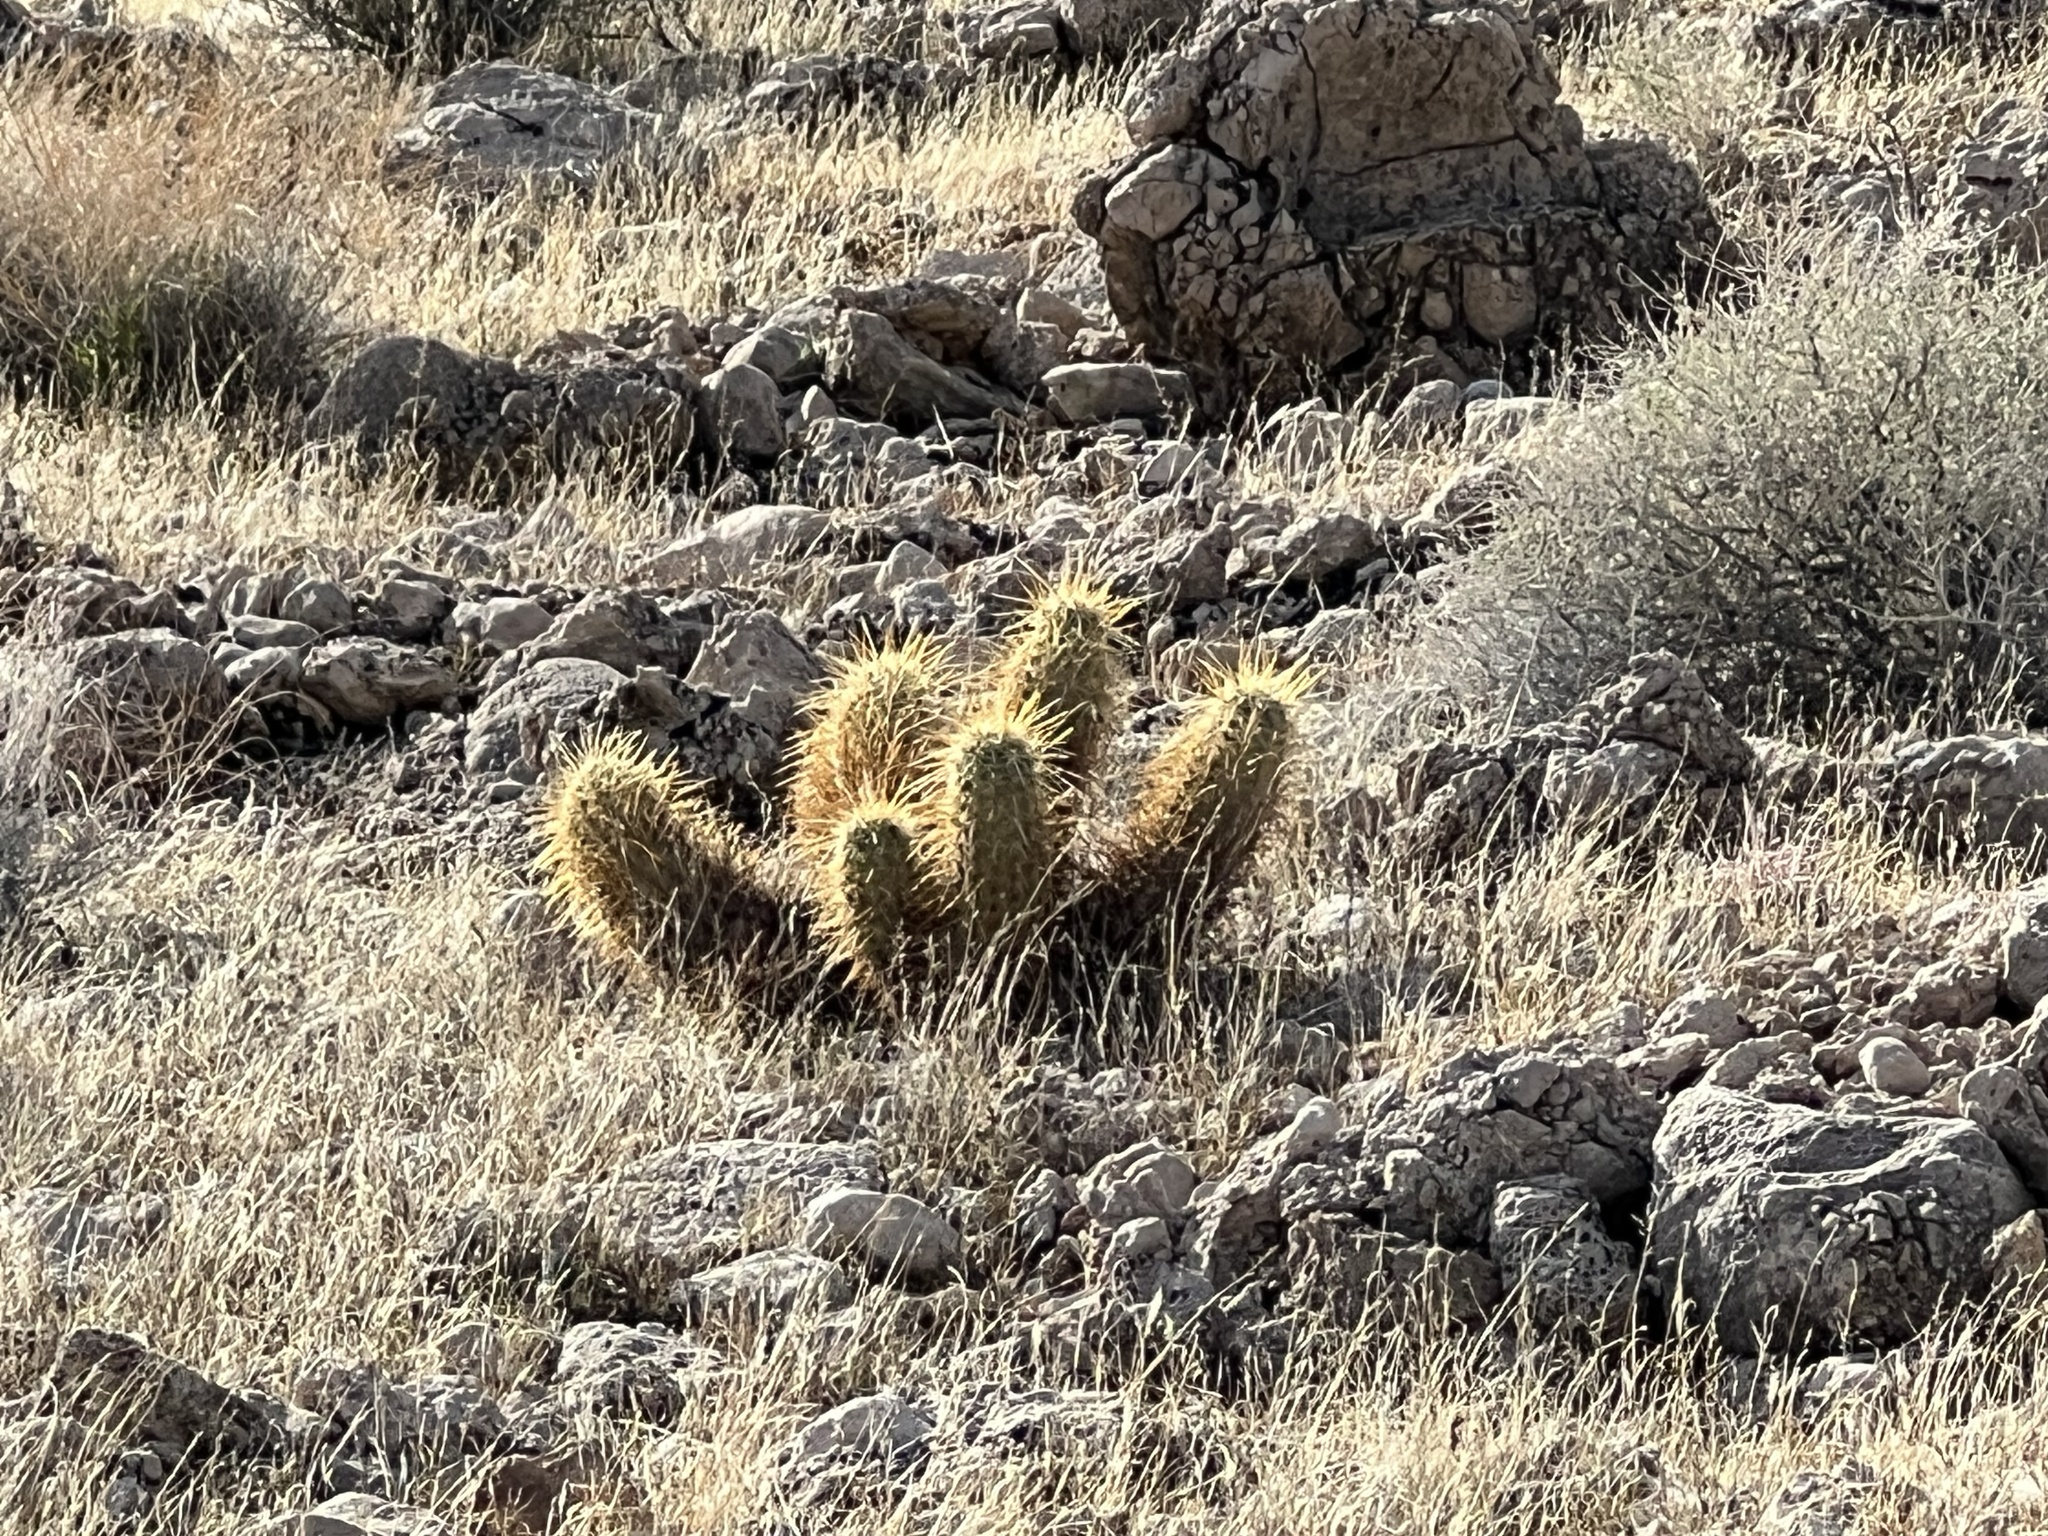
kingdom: Plantae
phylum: Tracheophyta
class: Magnoliopsida
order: Caryophyllales
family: Cactaceae
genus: Echinocereus
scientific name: Echinocereus engelmannii
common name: Engelmann's hedgehog cactus
